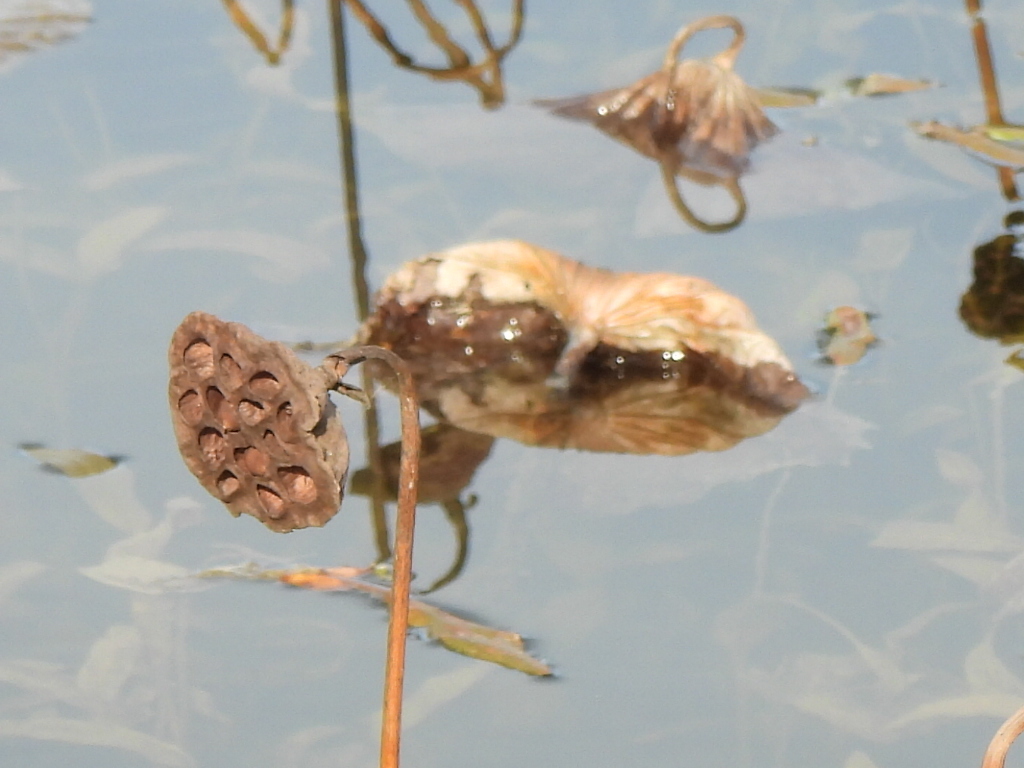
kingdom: Plantae
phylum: Tracheophyta
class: Magnoliopsida
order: Proteales
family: Nelumbonaceae
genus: Nelumbo
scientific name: Nelumbo lutea
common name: American lotus
